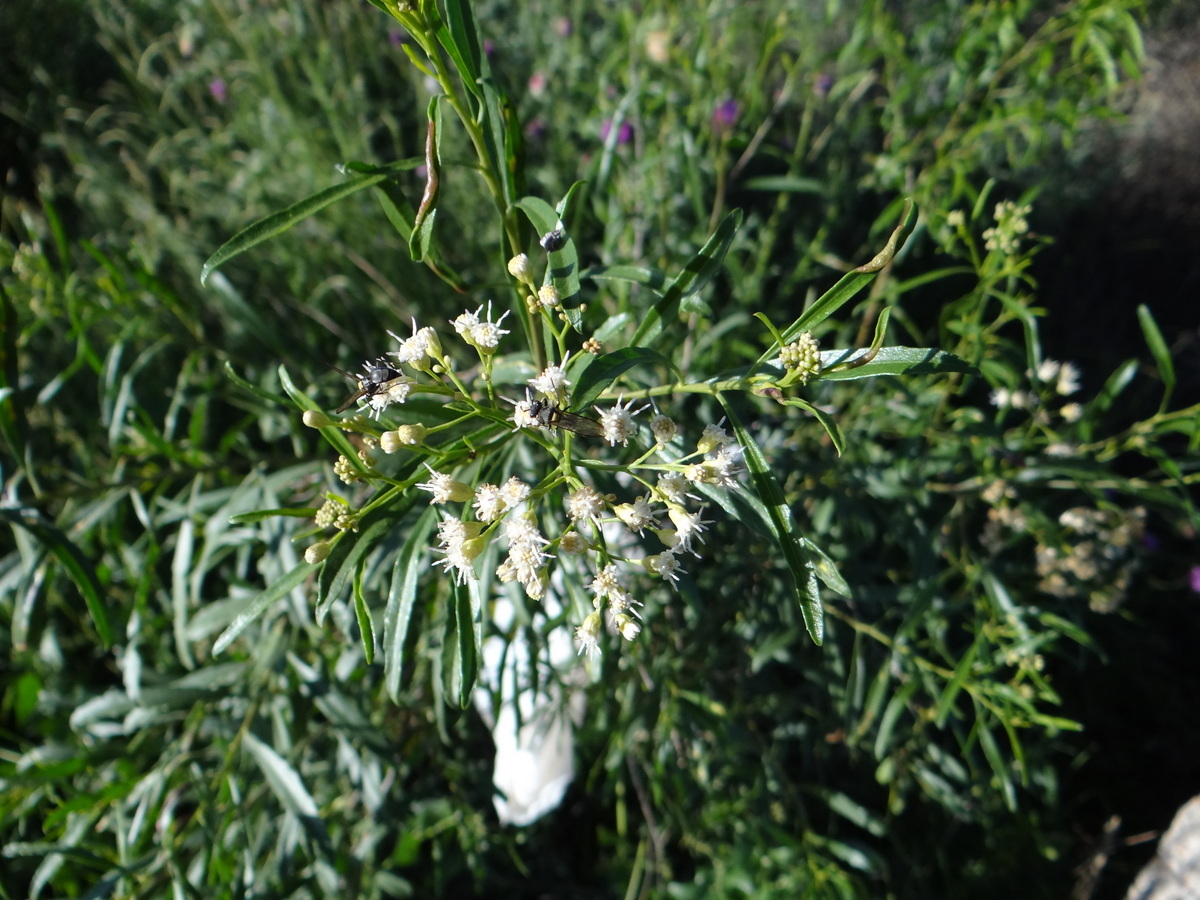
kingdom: Plantae
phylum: Tracheophyta
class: Magnoliopsida
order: Asterales
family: Asteraceae
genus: Baccharis
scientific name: Baccharis salicifolia
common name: Sticky baccharis
